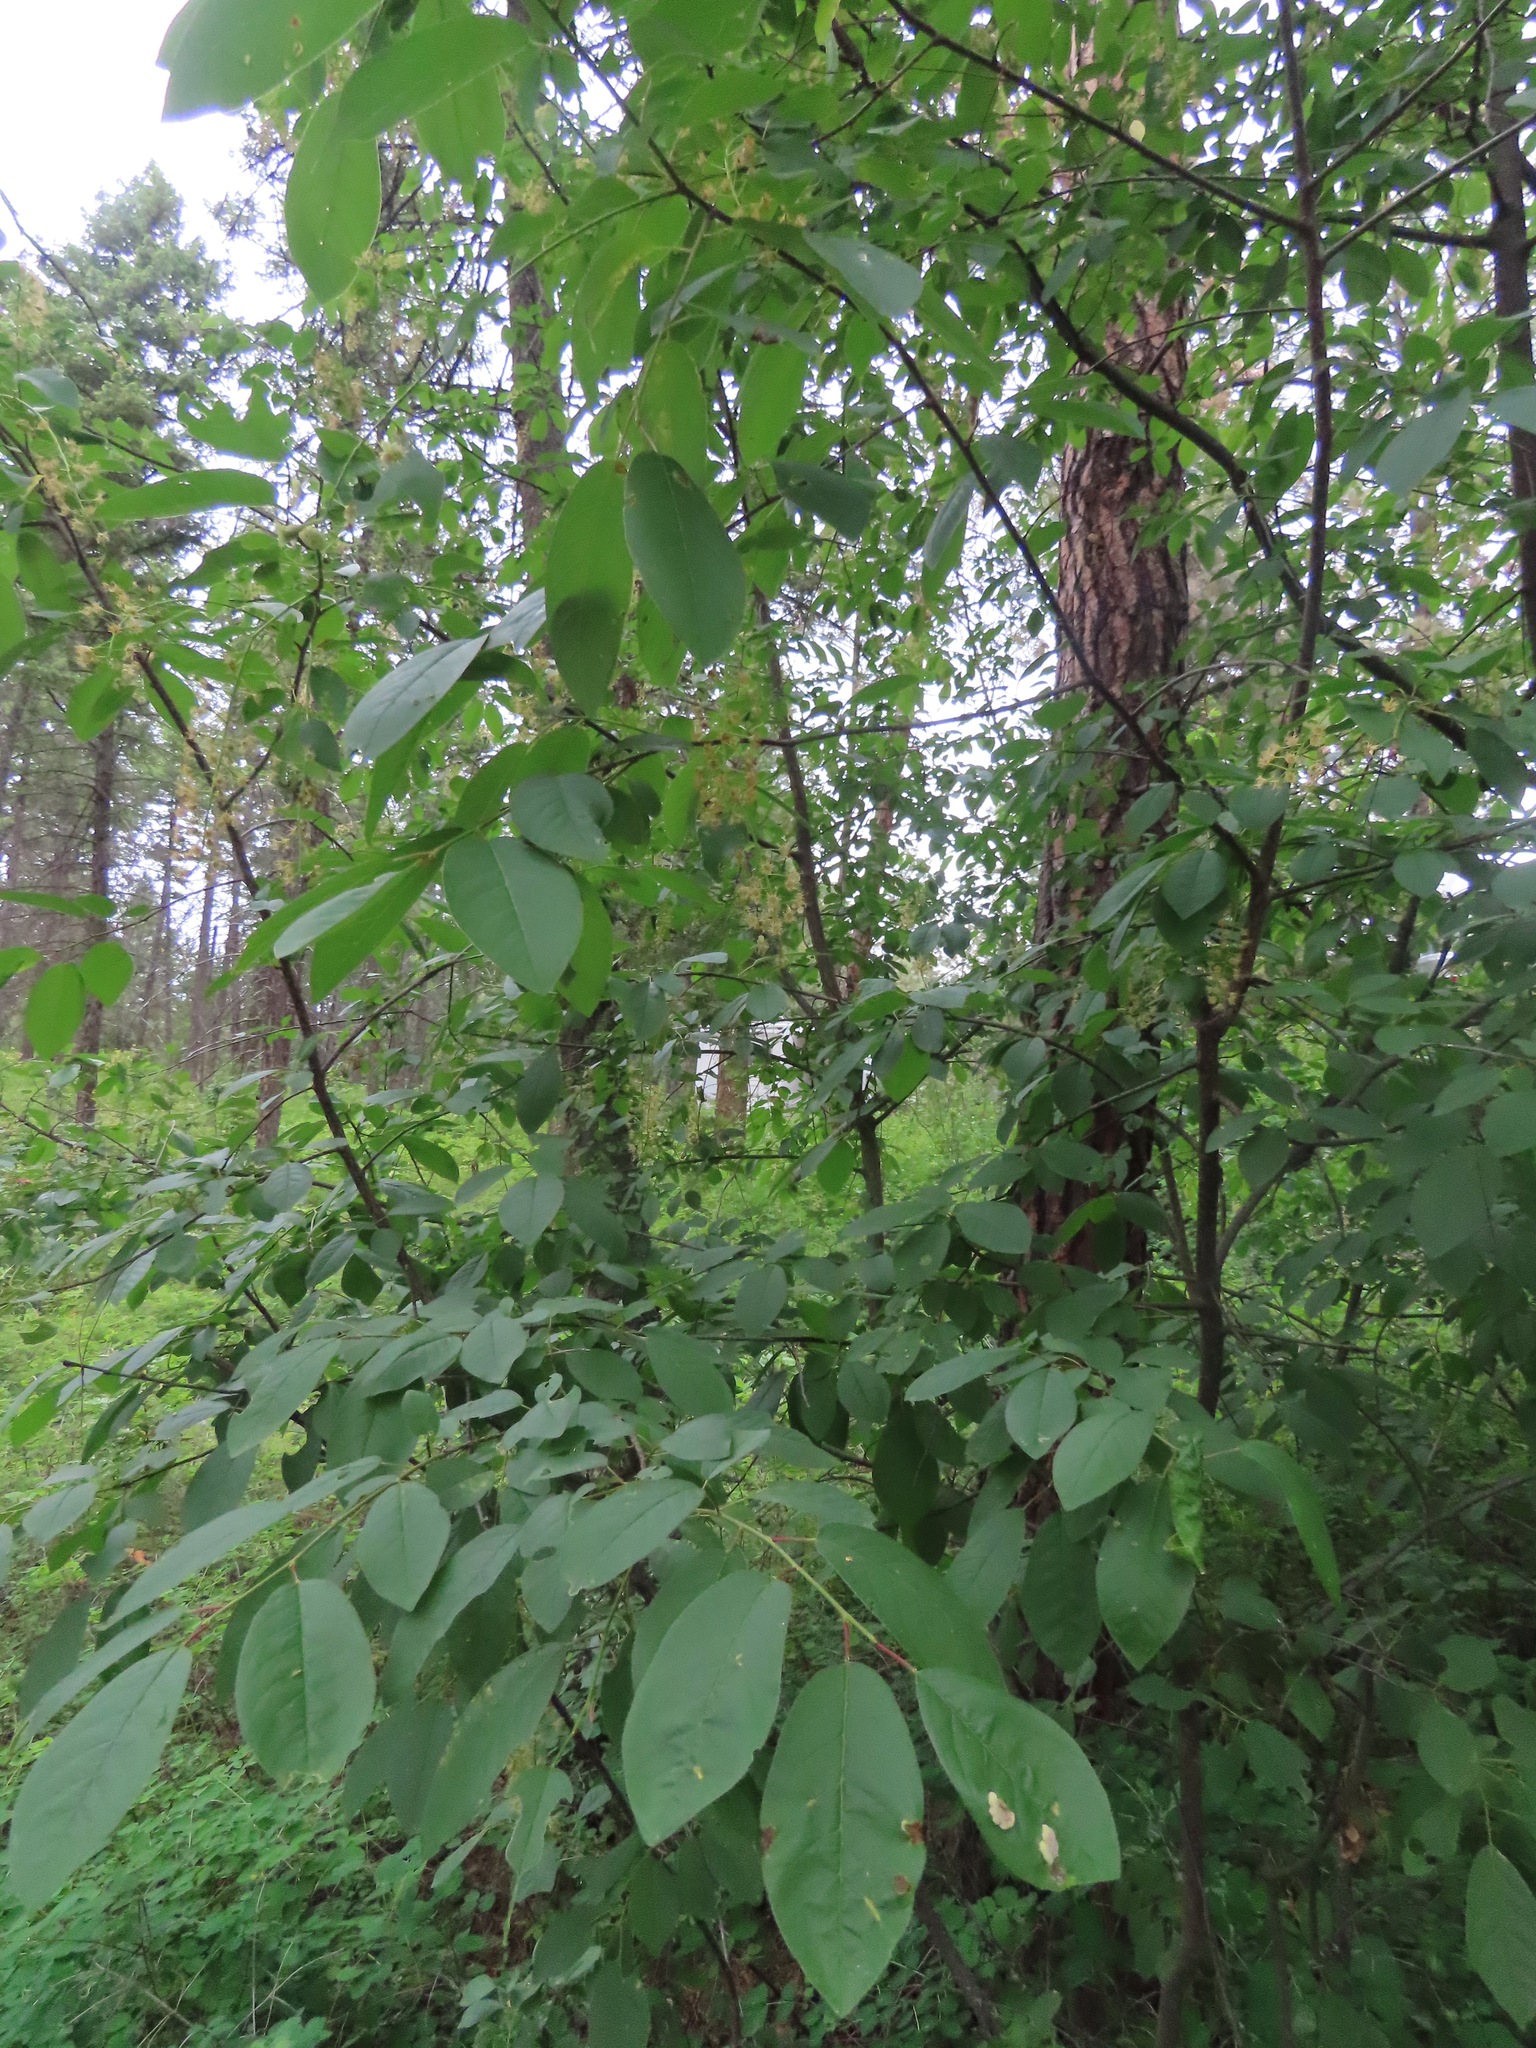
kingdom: Plantae
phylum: Tracheophyta
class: Magnoliopsida
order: Rosales
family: Rosaceae
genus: Prunus
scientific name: Prunus virginiana
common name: Chokecherry
